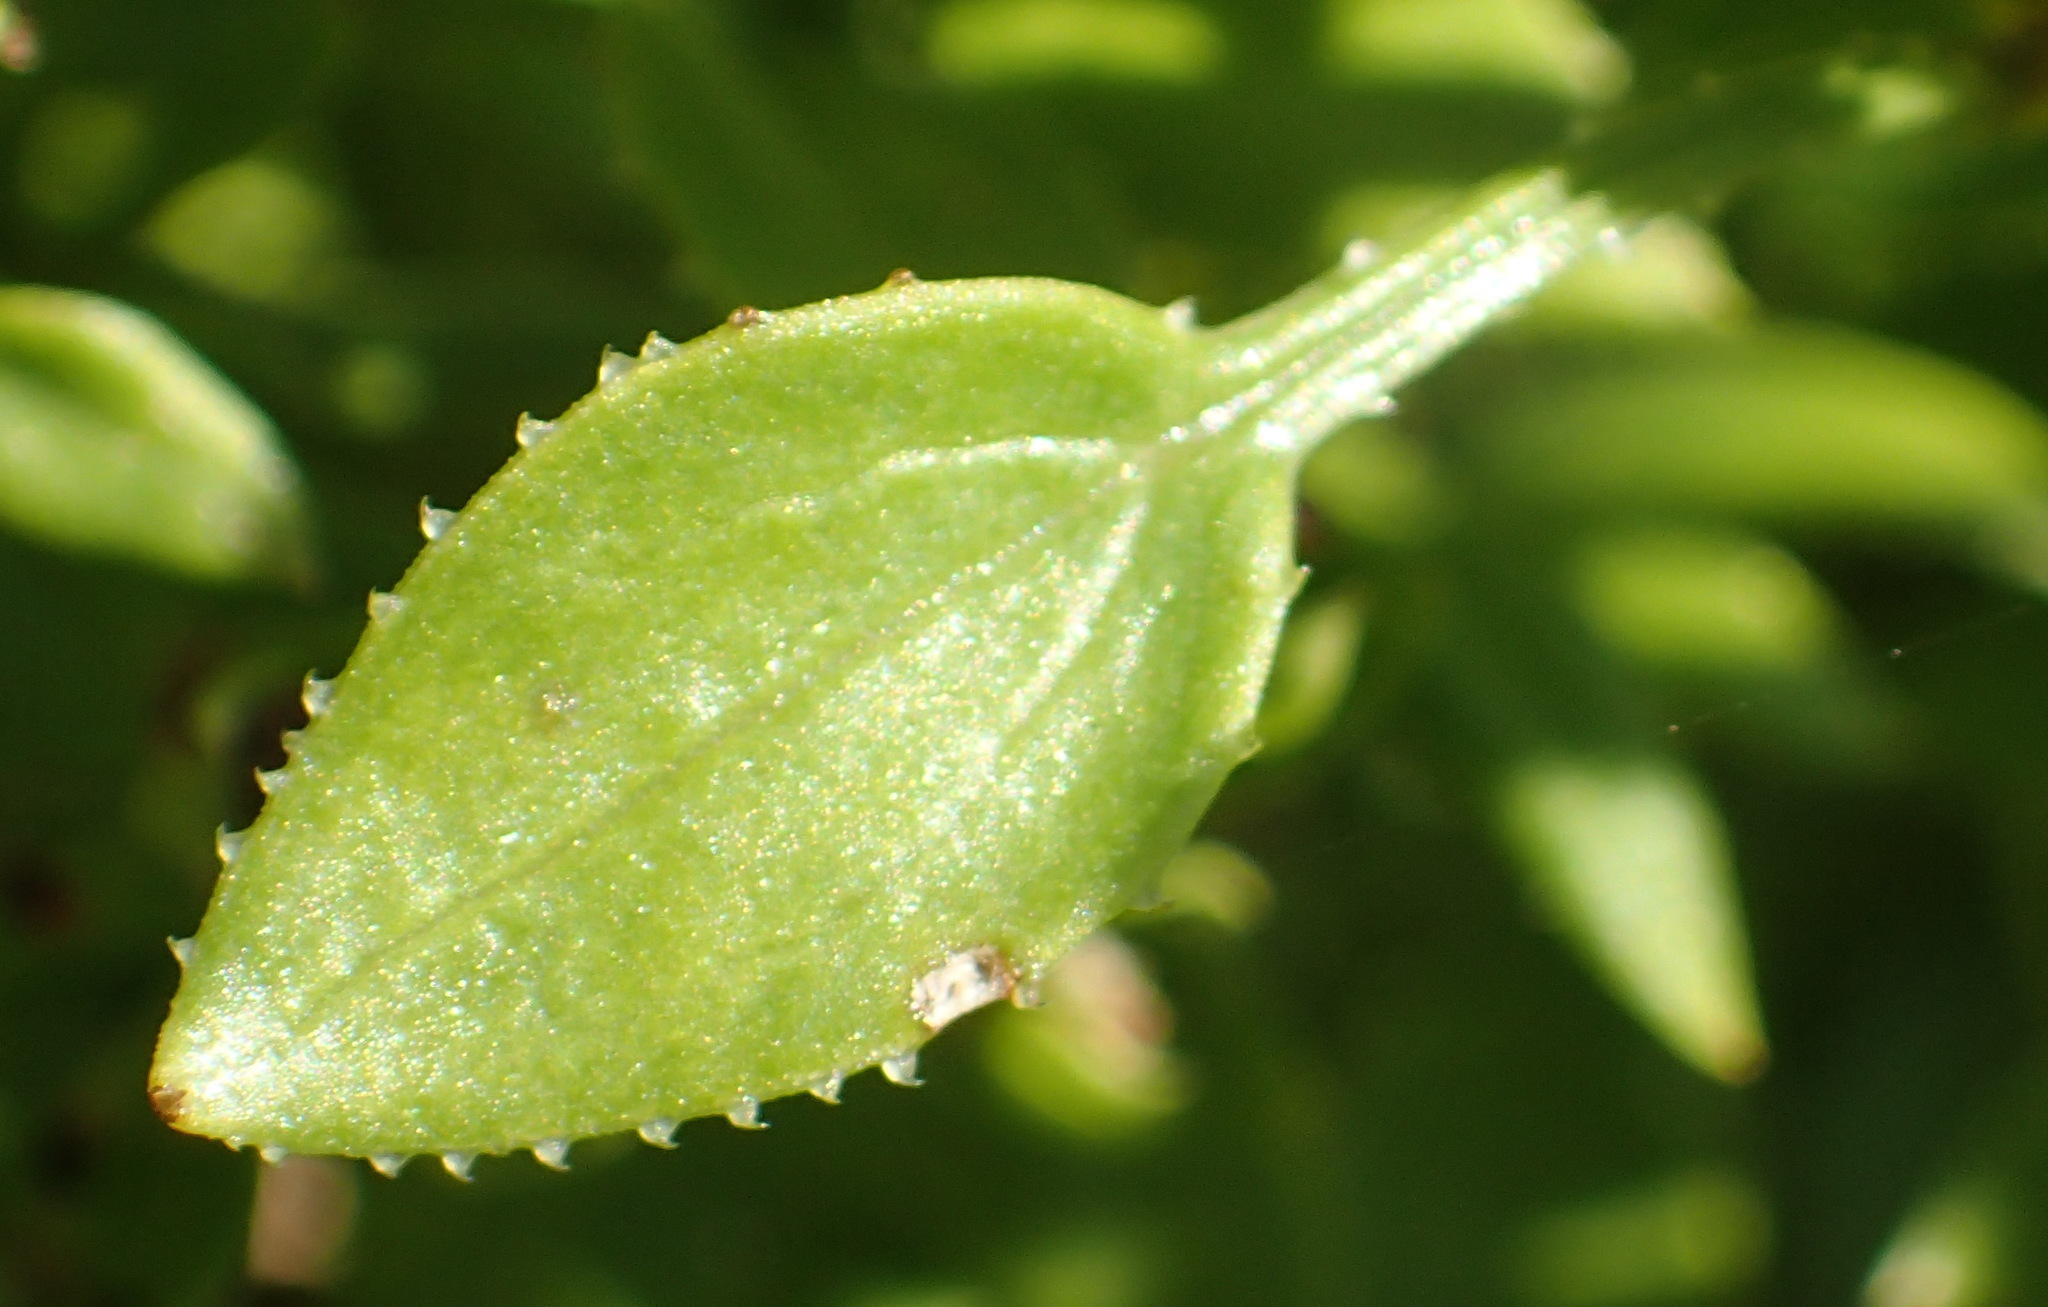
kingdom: Plantae
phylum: Tracheophyta
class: Magnoliopsida
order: Gentianales
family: Rubiaceae
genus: Rubia
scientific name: Rubia petiolaris
